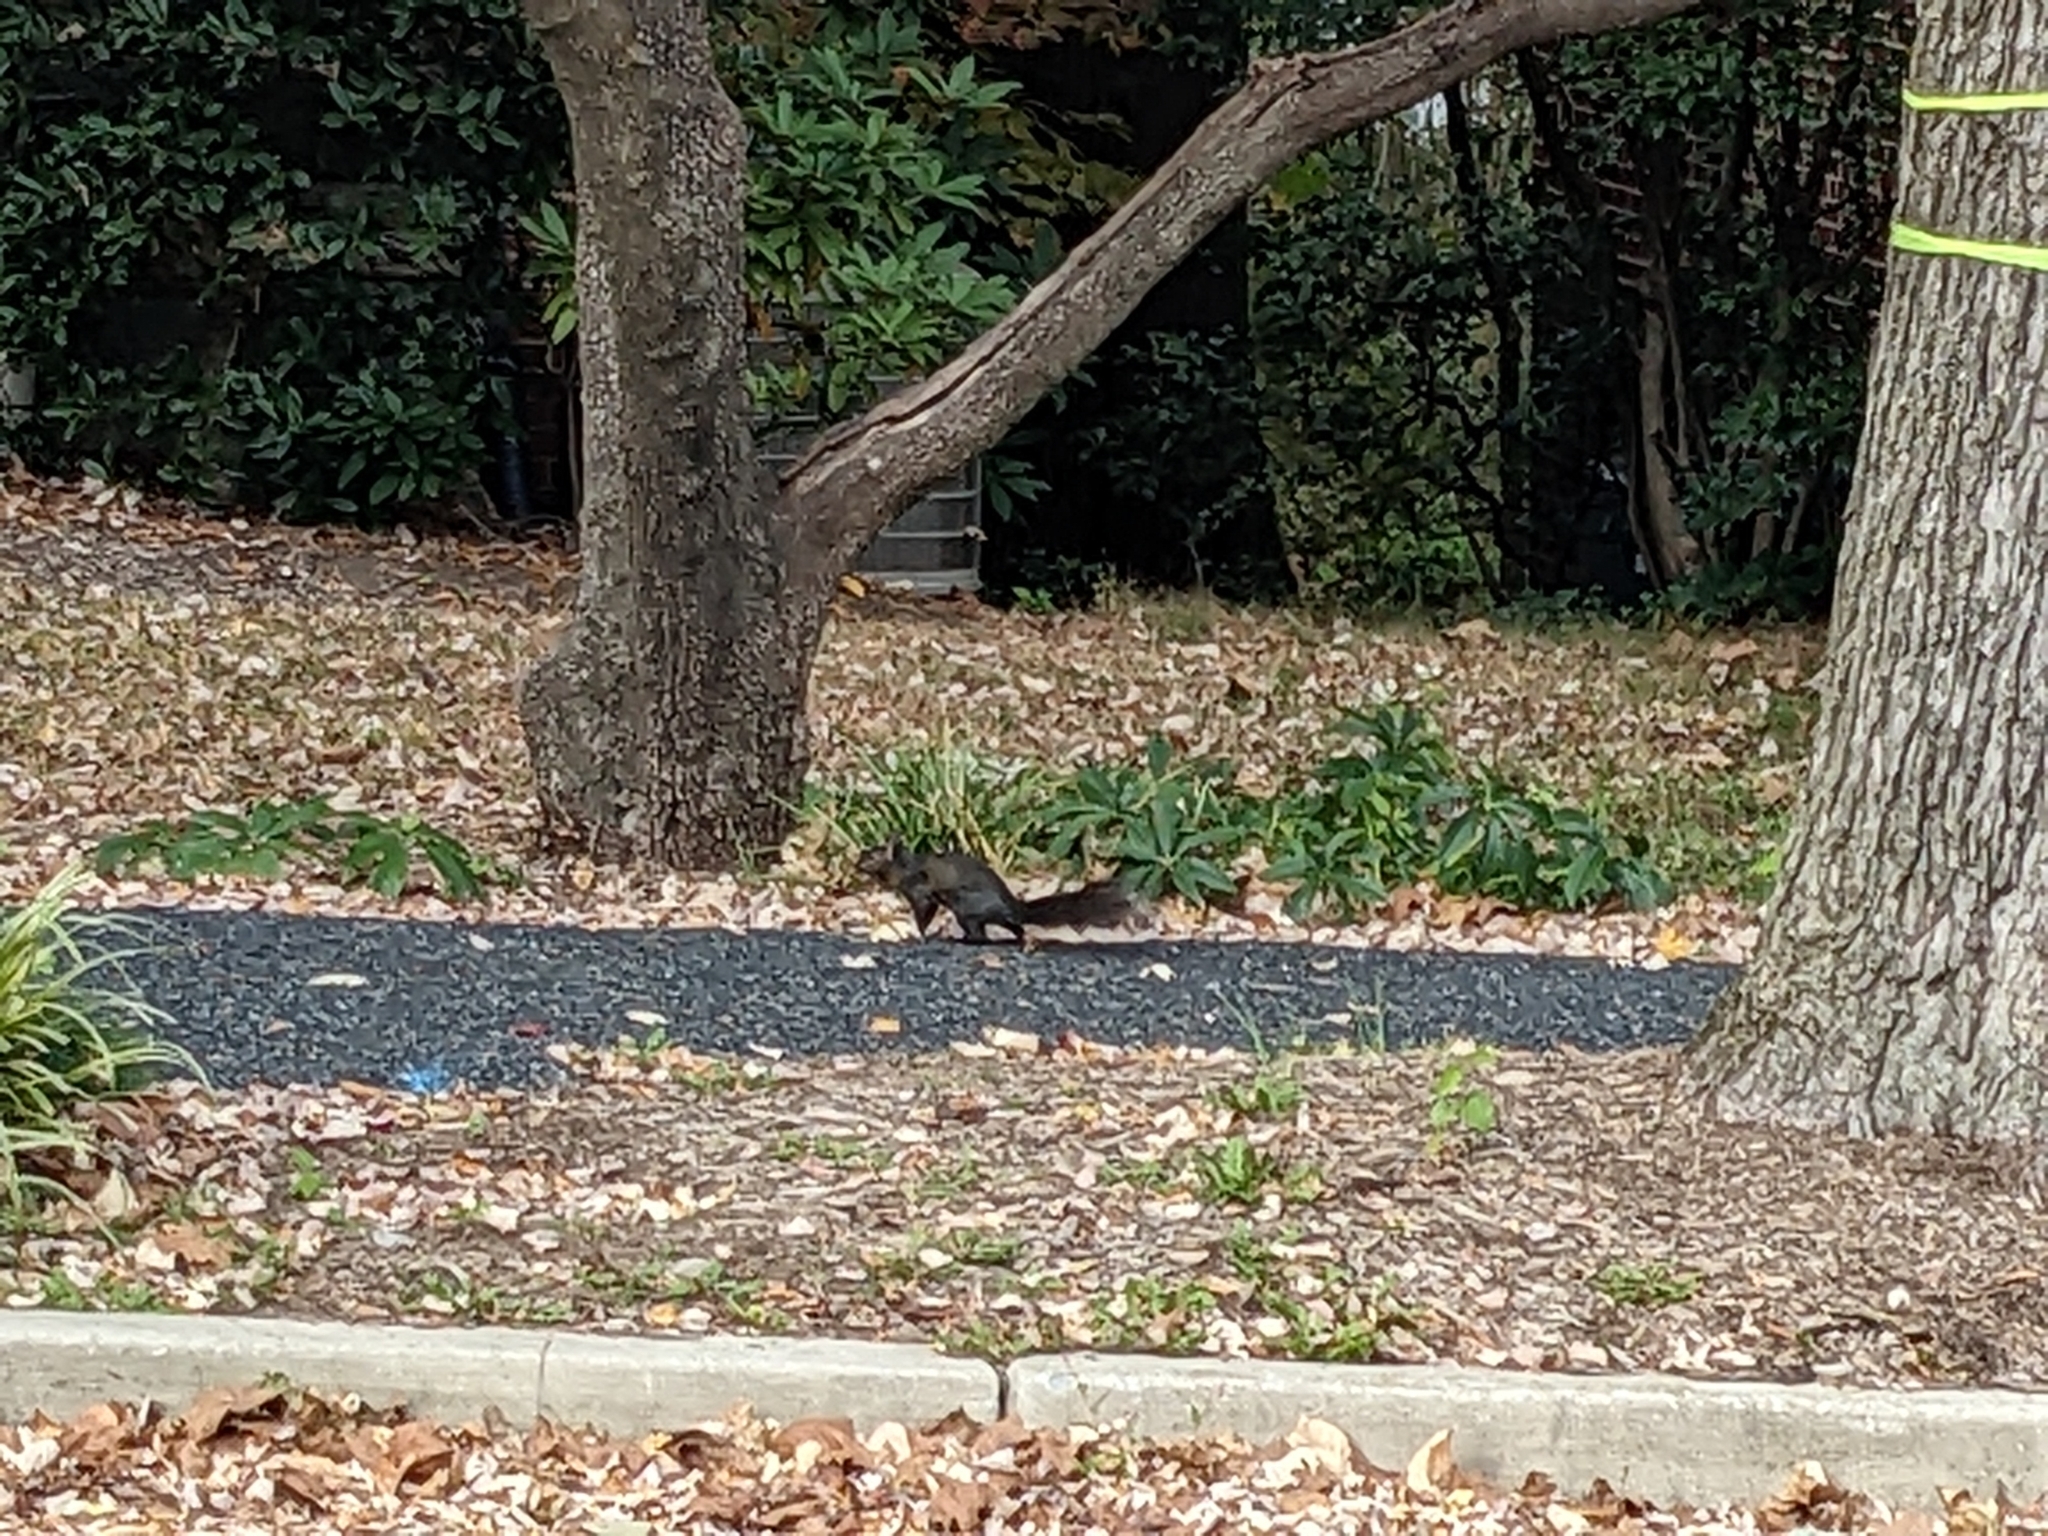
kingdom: Animalia
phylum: Chordata
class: Mammalia
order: Rodentia
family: Sciuridae
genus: Sciurus
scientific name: Sciurus carolinensis
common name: Eastern gray squirrel
